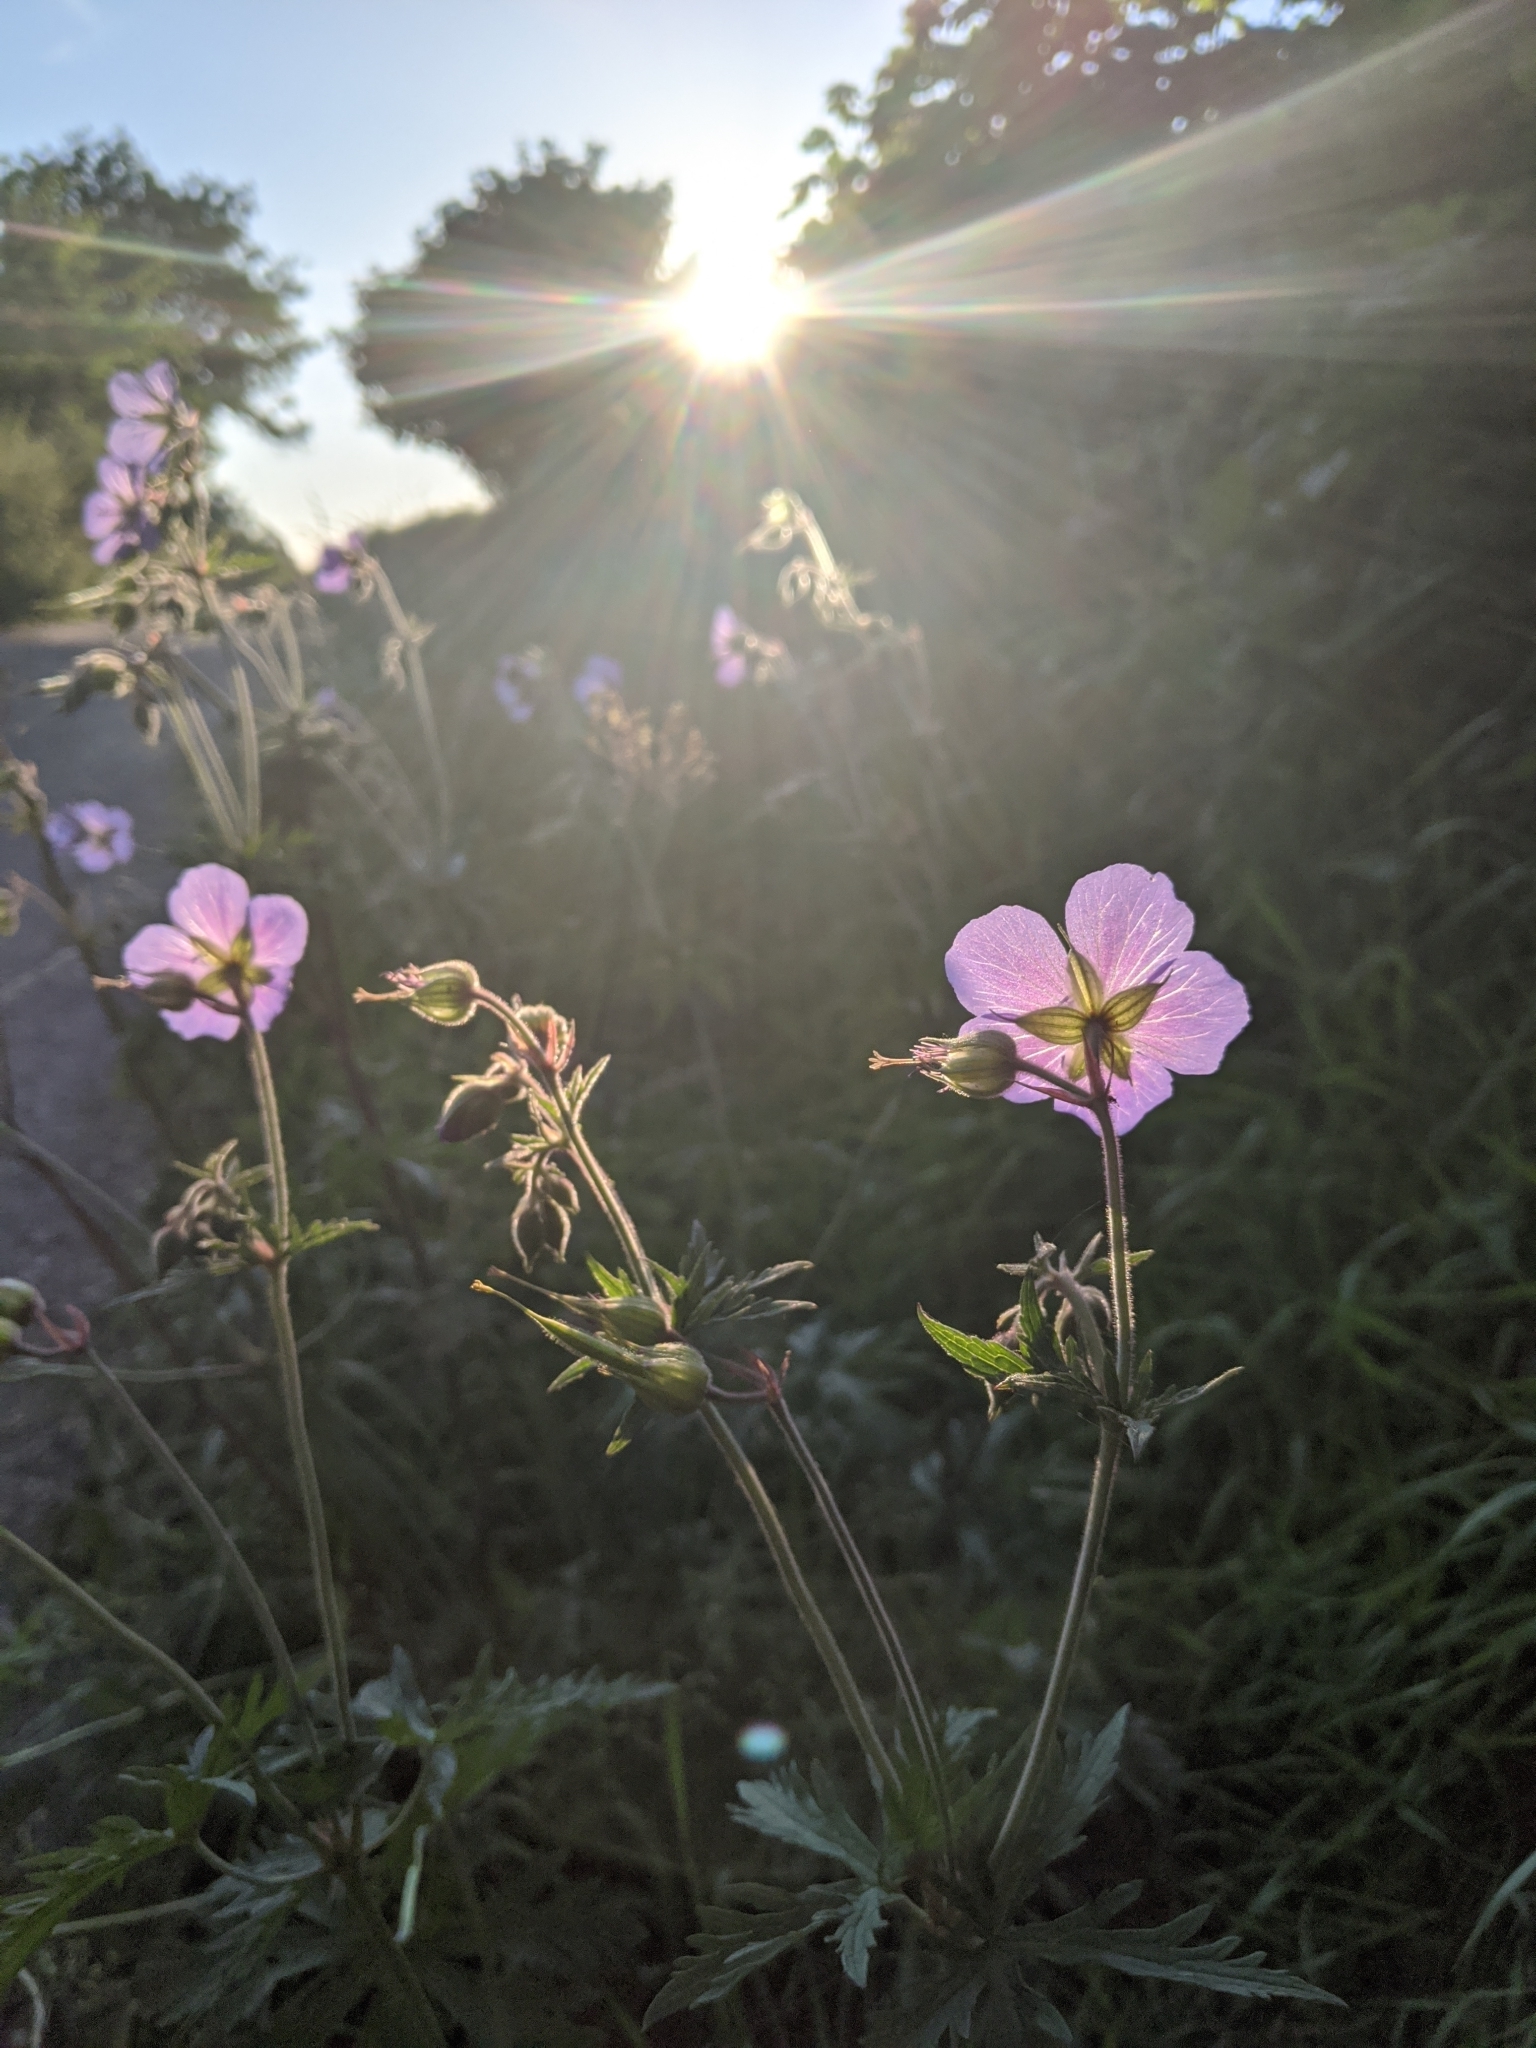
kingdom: Plantae
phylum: Tracheophyta
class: Magnoliopsida
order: Geraniales
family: Geraniaceae
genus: Geranium
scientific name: Geranium pratense
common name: Meadow crane's-bill
